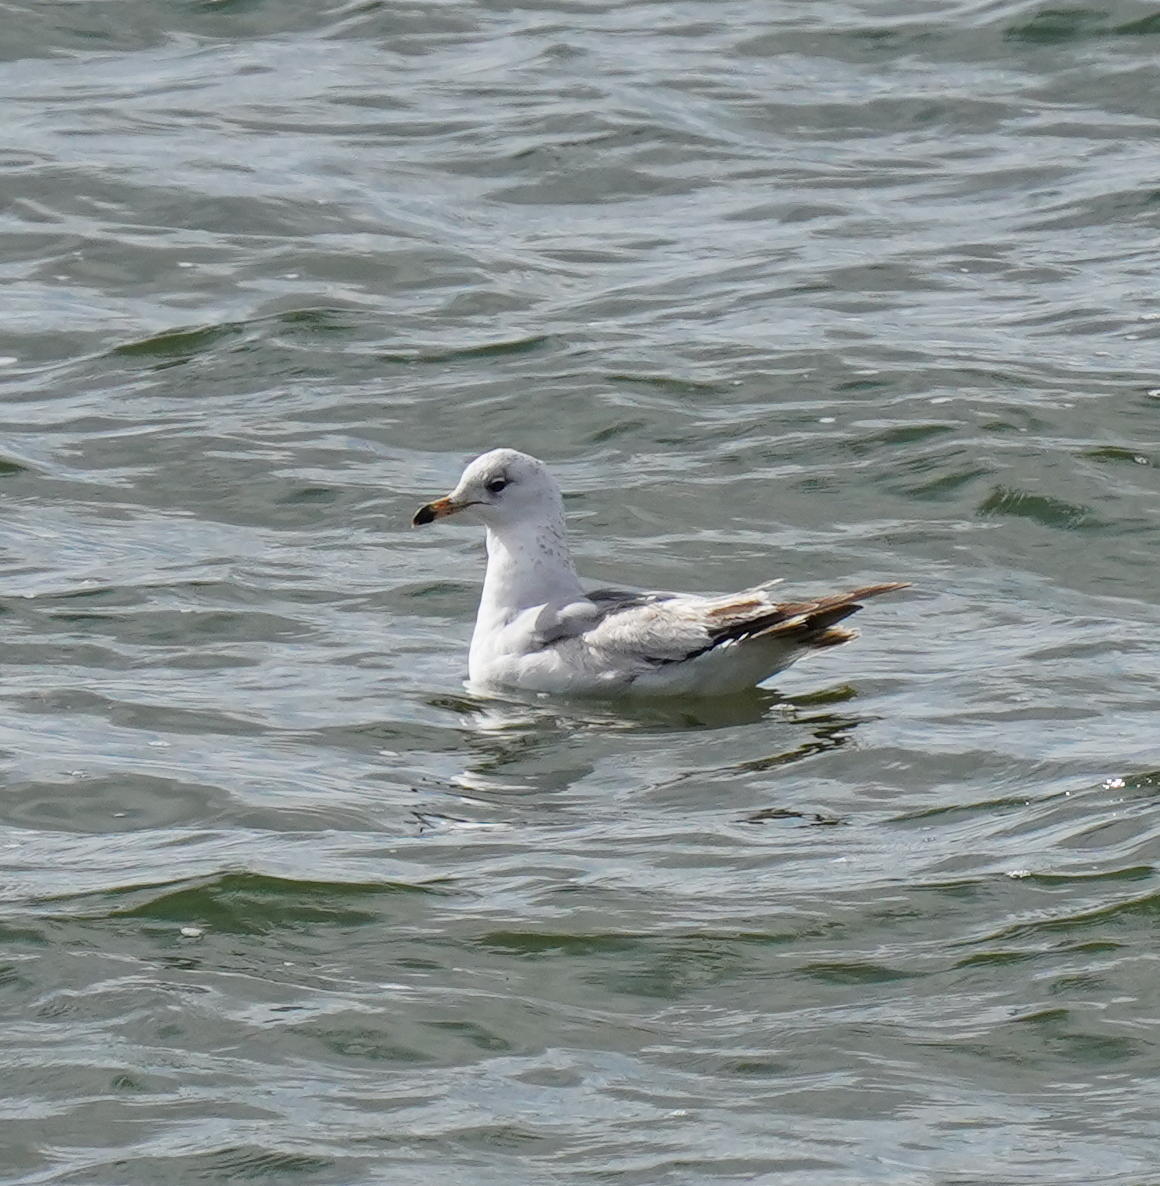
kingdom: Animalia
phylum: Chordata
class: Aves
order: Charadriiformes
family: Laridae
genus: Larus
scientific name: Larus delawarensis
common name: Ring-billed gull
